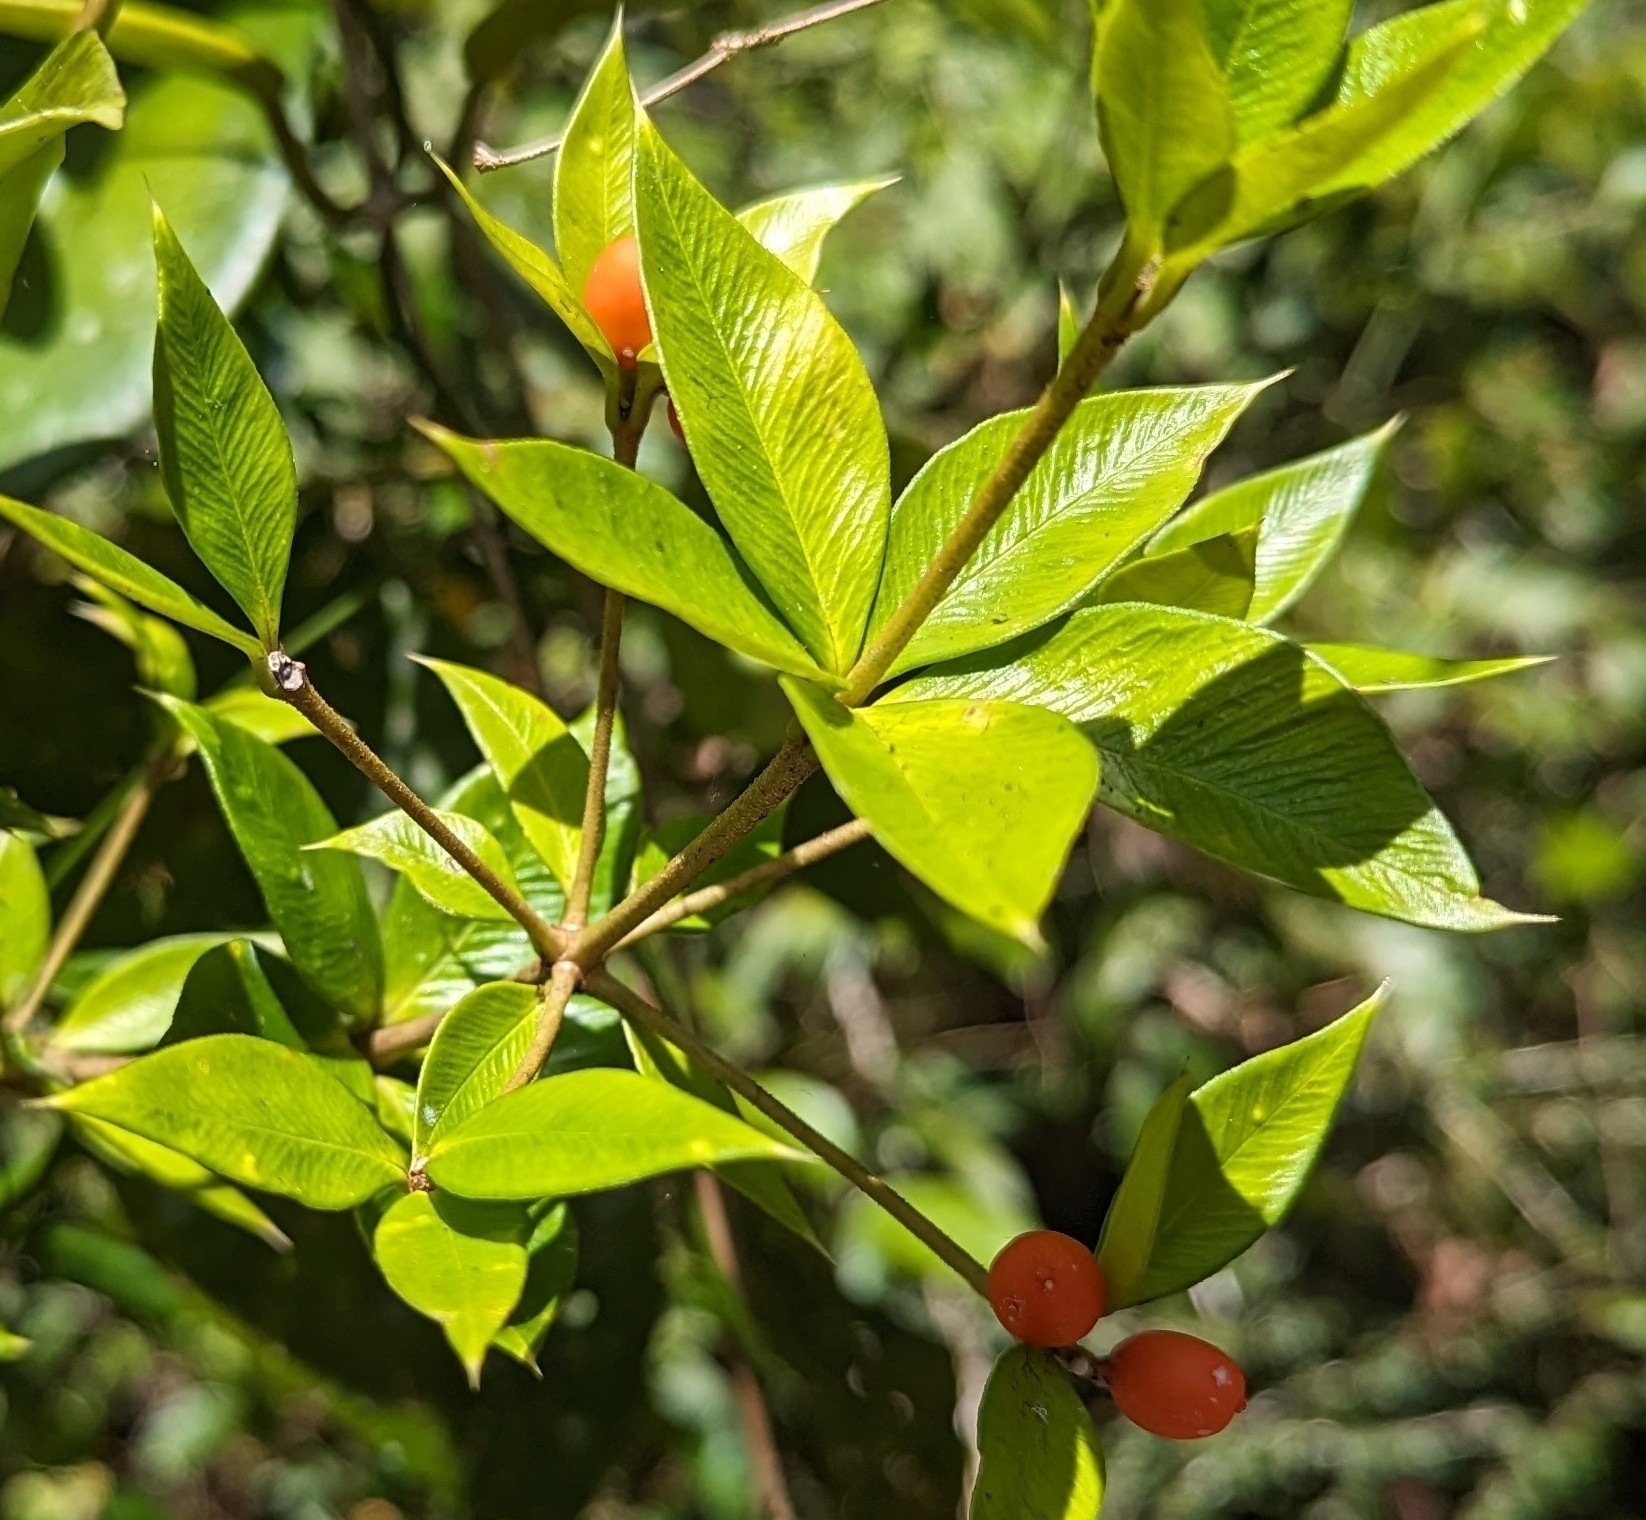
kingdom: Plantae
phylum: Tracheophyta
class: Magnoliopsida
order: Gentianales
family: Apocynaceae
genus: Alyxia
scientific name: Alyxia ruscifolia
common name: Chainfruit
